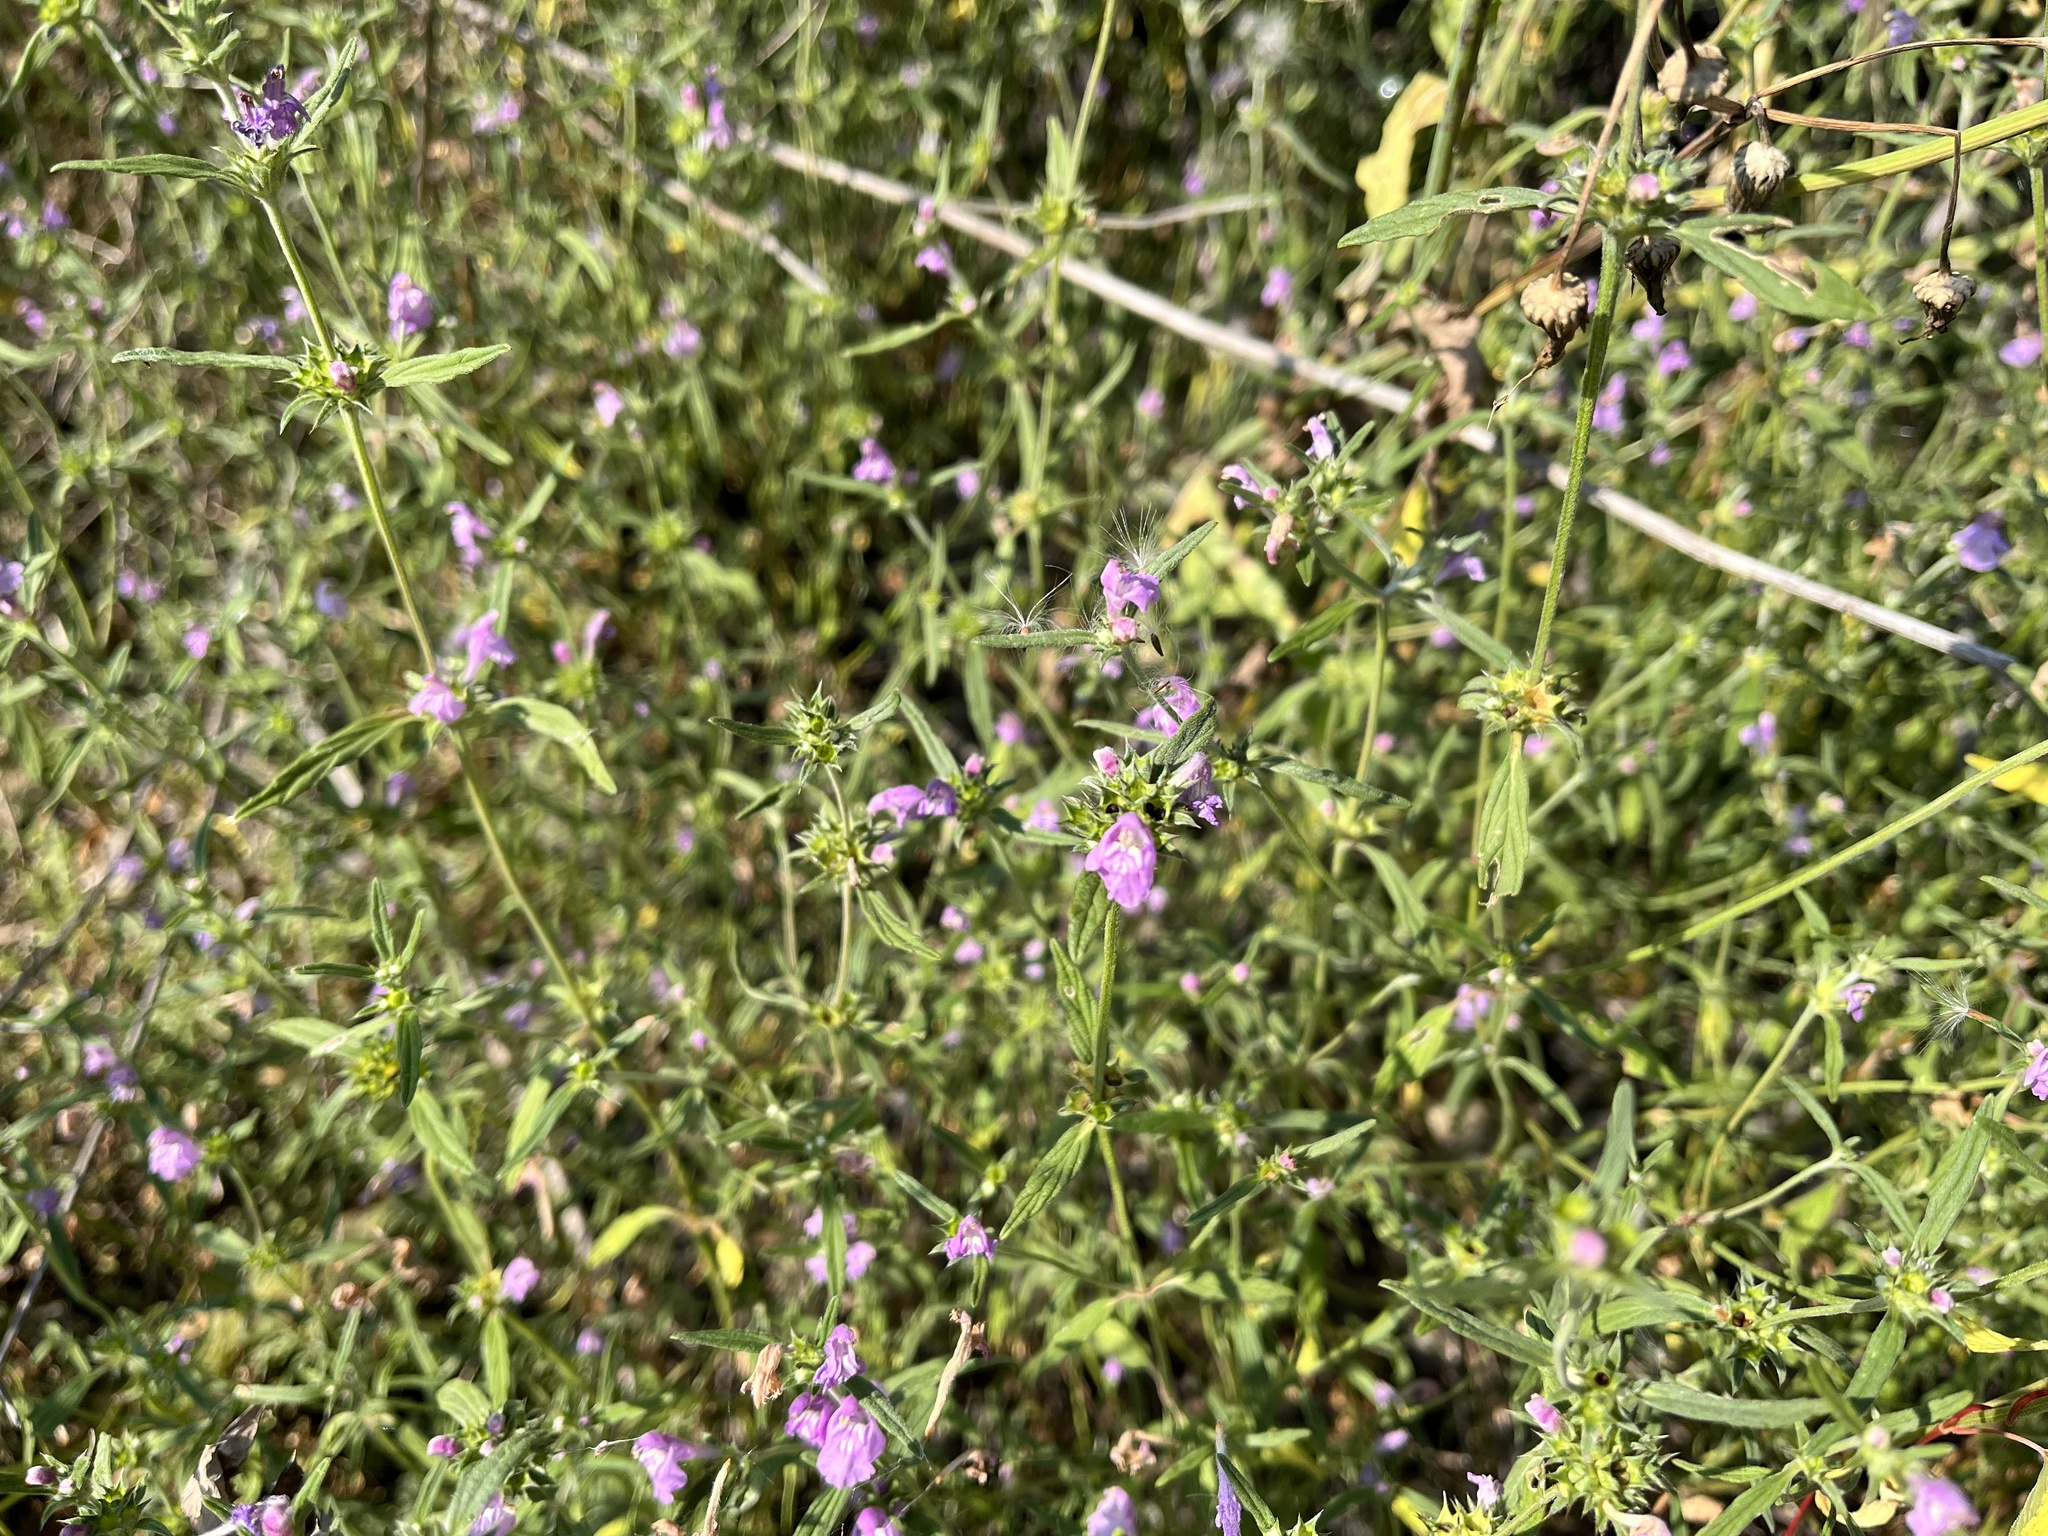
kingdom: Plantae
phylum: Tracheophyta
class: Magnoliopsida
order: Lamiales
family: Lamiaceae
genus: Galeopsis
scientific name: Galeopsis angustifolia
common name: Red hemp-nettle
